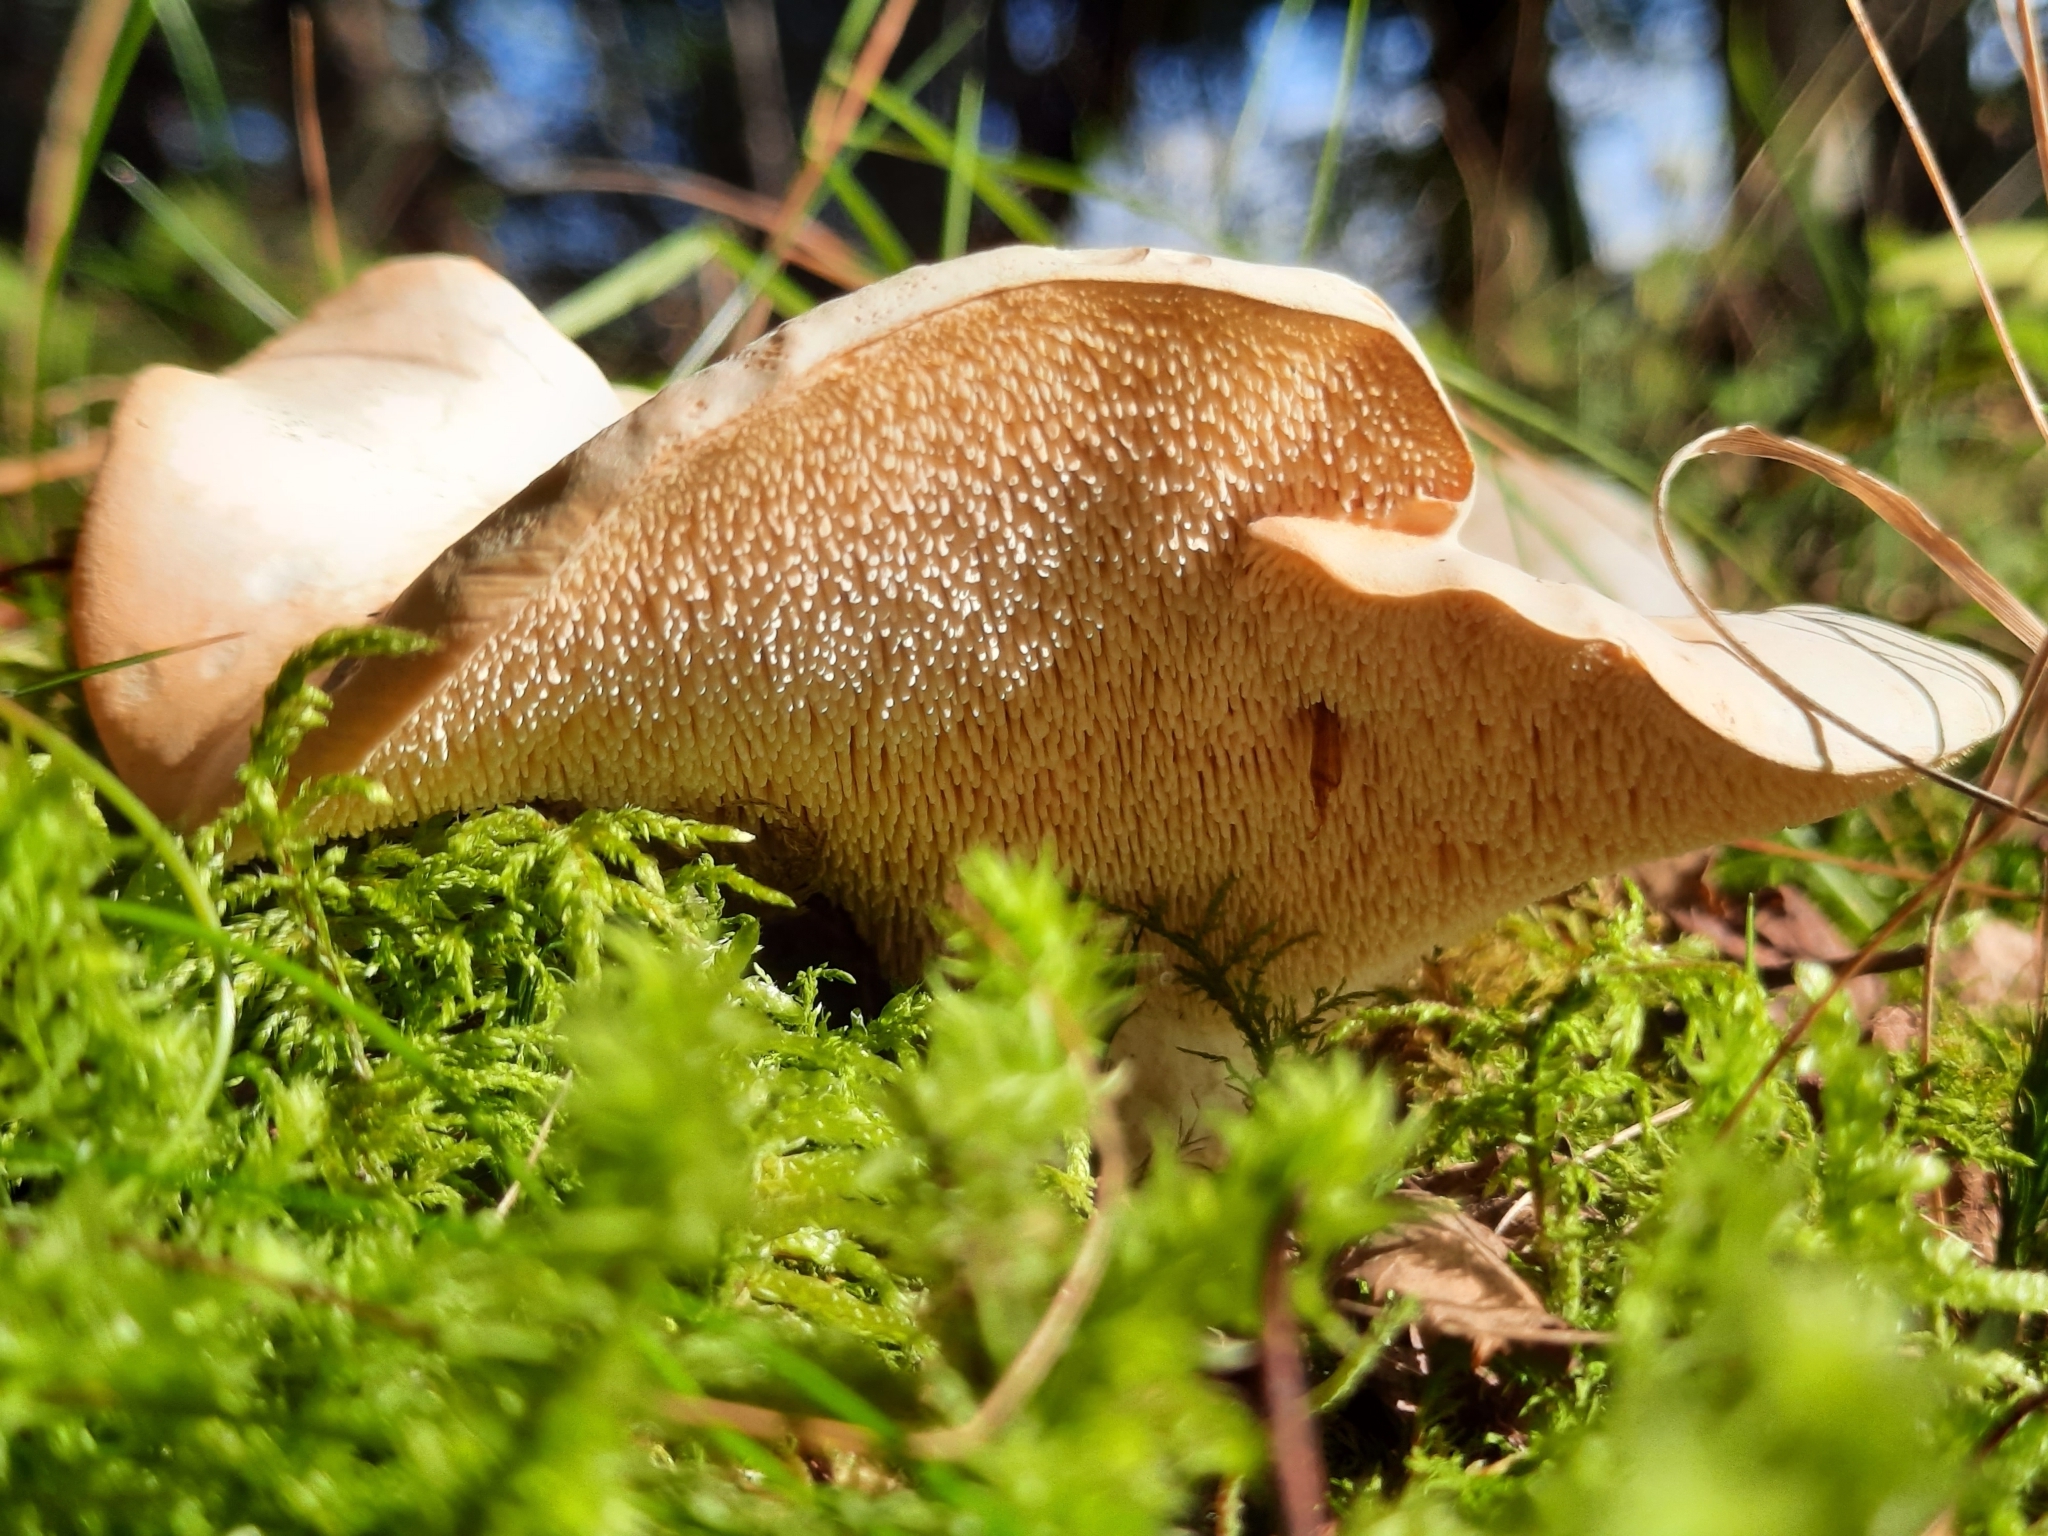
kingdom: Fungi
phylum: Basidiomycota
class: Agaricomycetes
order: Cantharellales
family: Hydnaceae
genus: Hydnum
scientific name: Hydnum repandum
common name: Wood hedgehog
